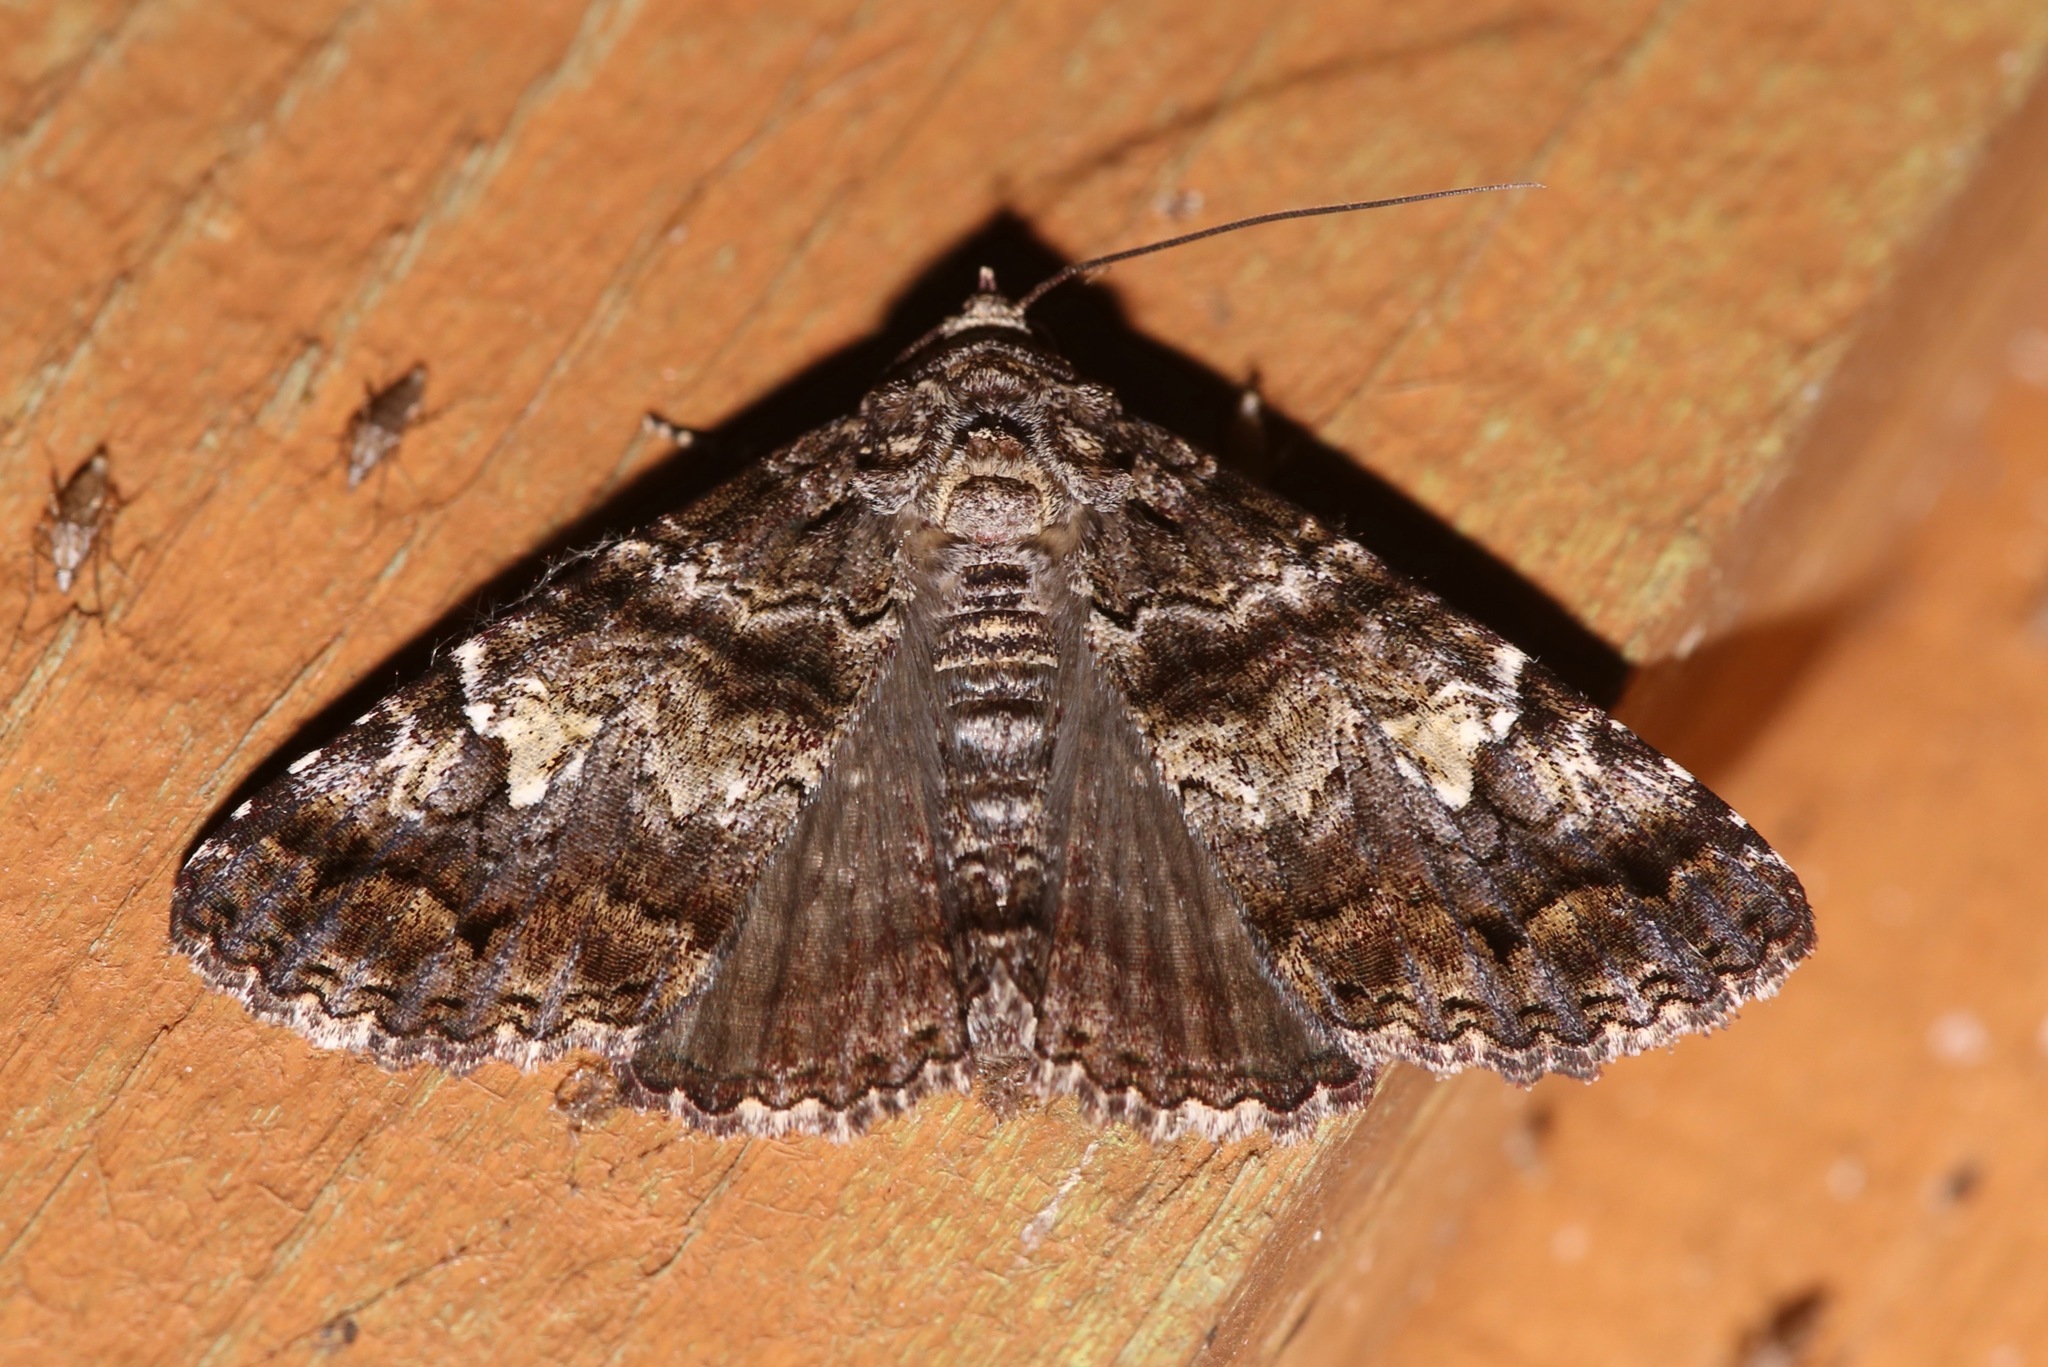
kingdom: Animalia
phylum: Arthropoda
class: Insecta
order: Lepidoptera
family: Erebidae
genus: Metria
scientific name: Metria amella
